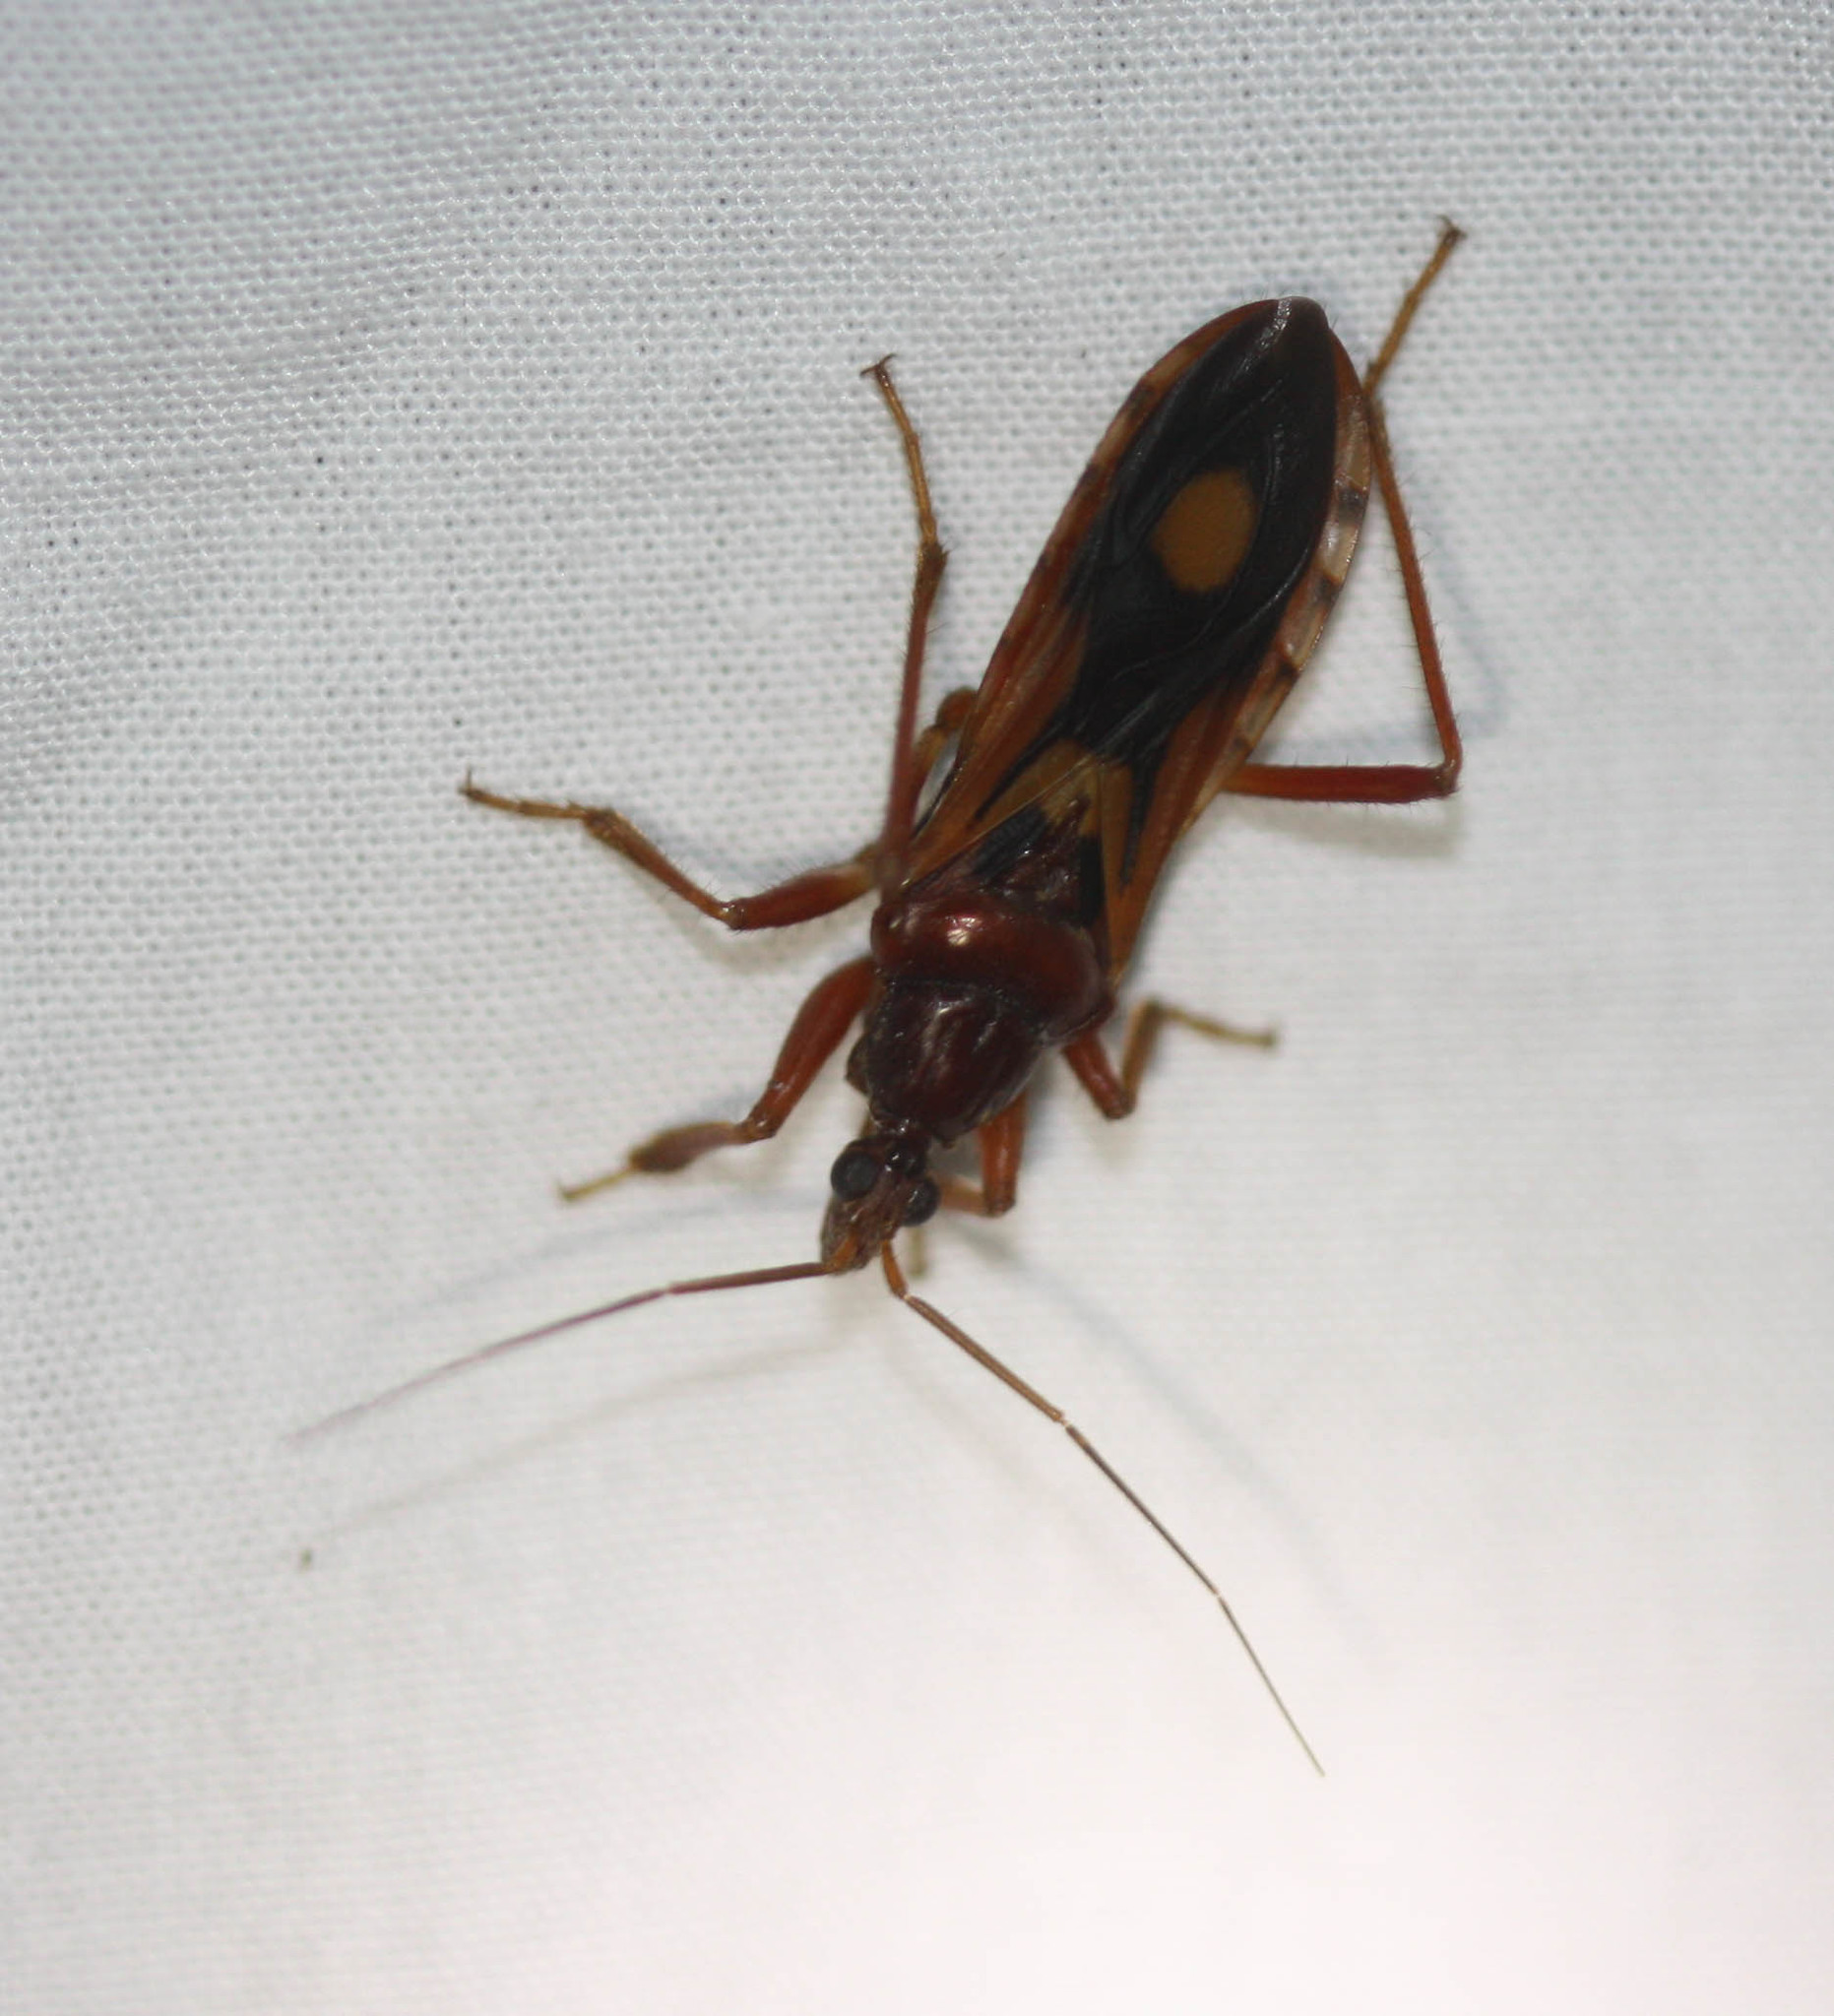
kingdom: Animalia
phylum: Arthropoda
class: Insecta
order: Hemiptera
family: Reduviidae
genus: Rasahus
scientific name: Rasahus thoracicus
